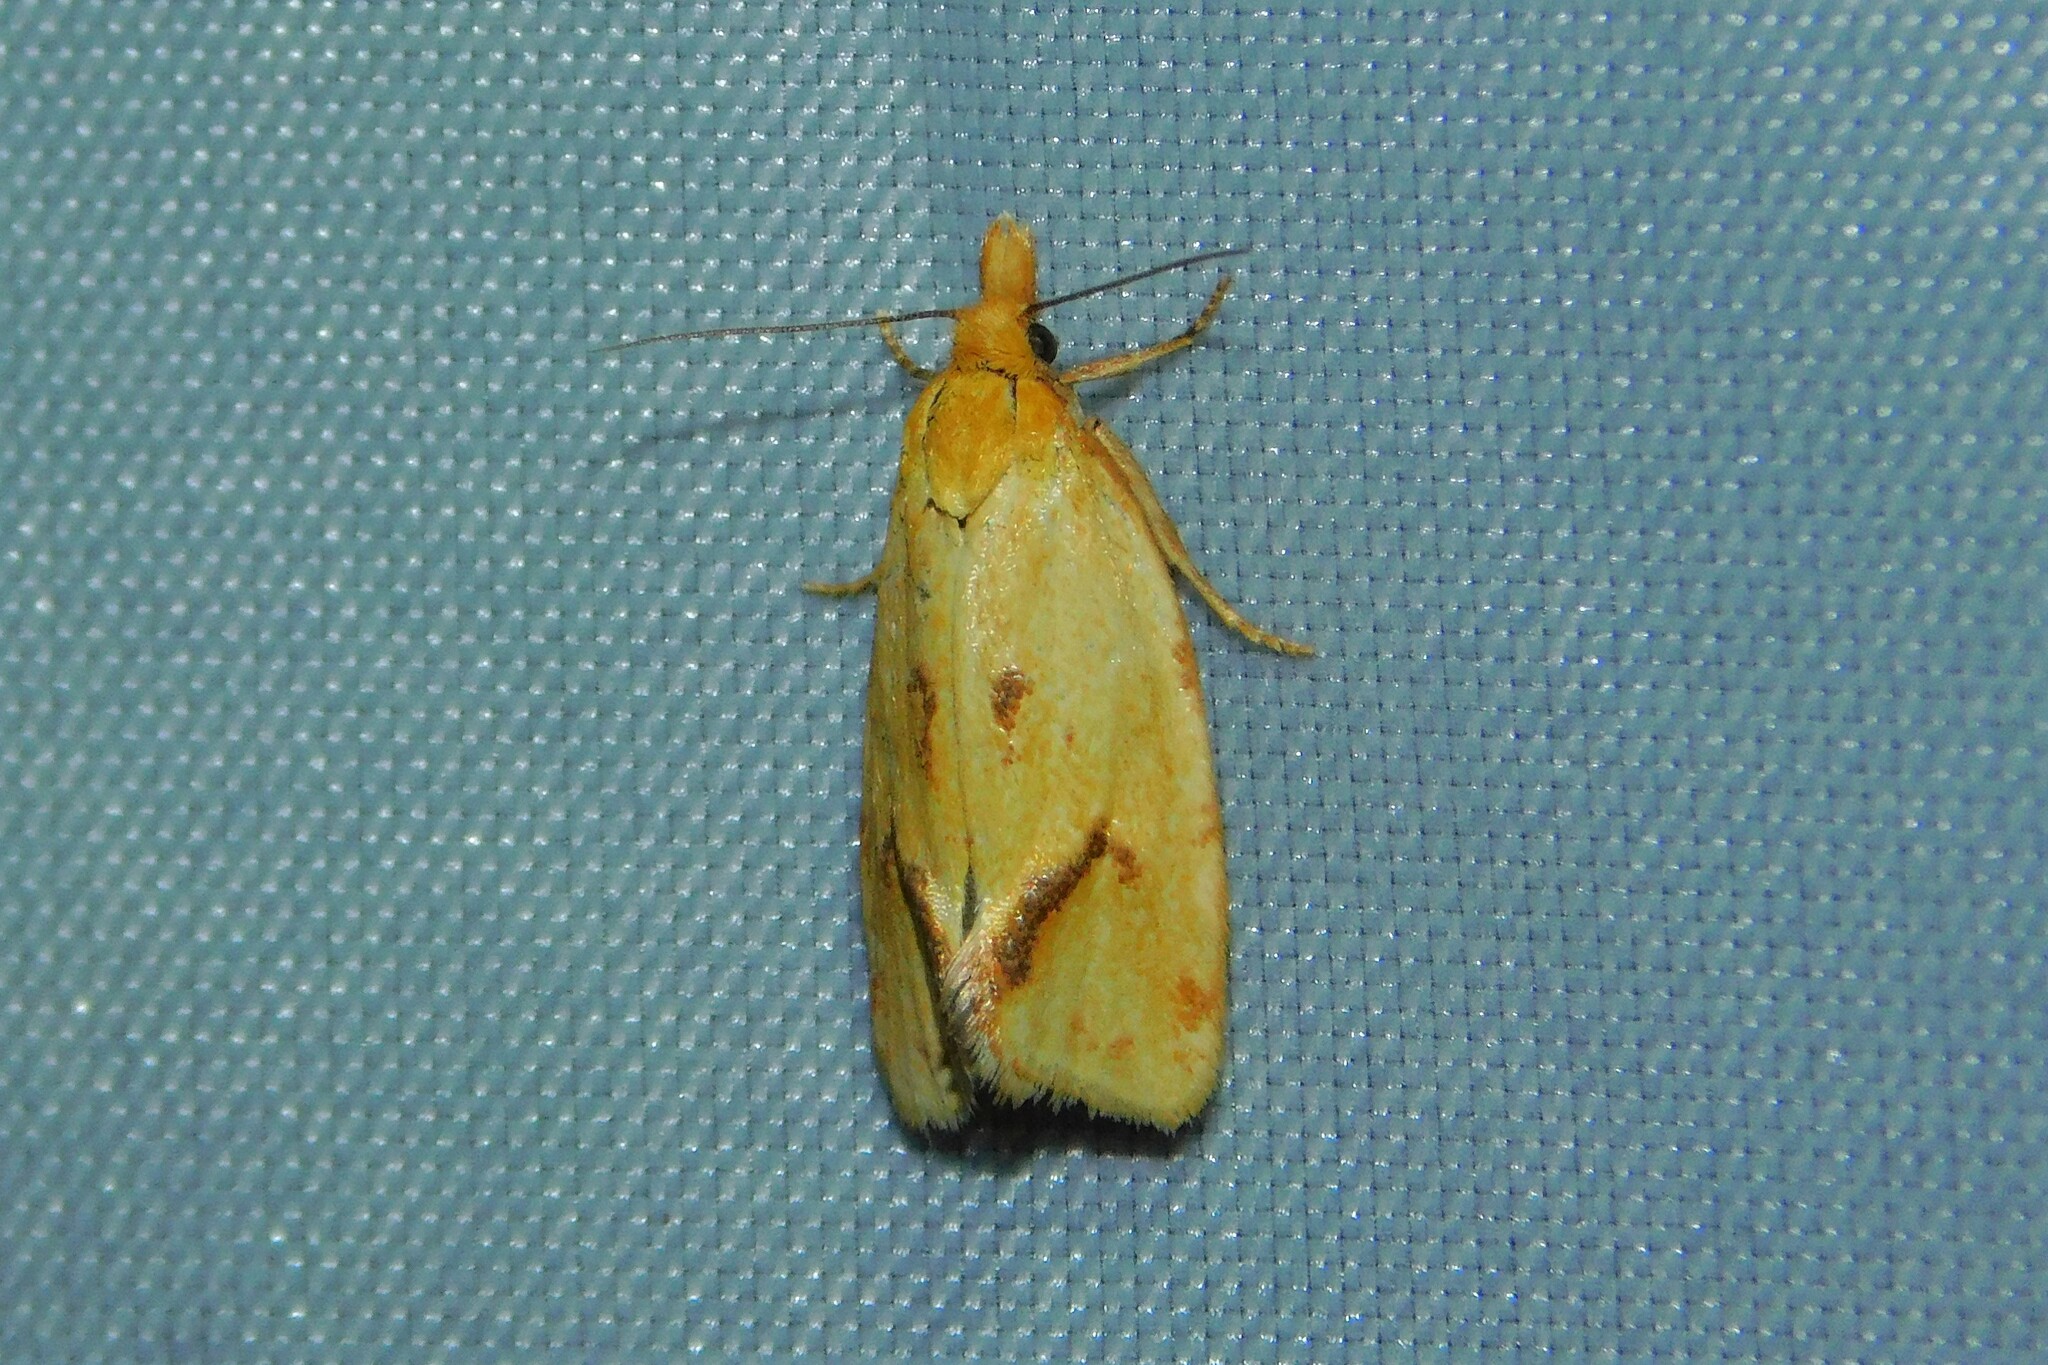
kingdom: Animalia
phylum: Arthropoda
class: Insecta
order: Lepidoptera
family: Tortricidae
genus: Agapeta
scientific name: Agapeta hamana
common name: Common yellow conch
